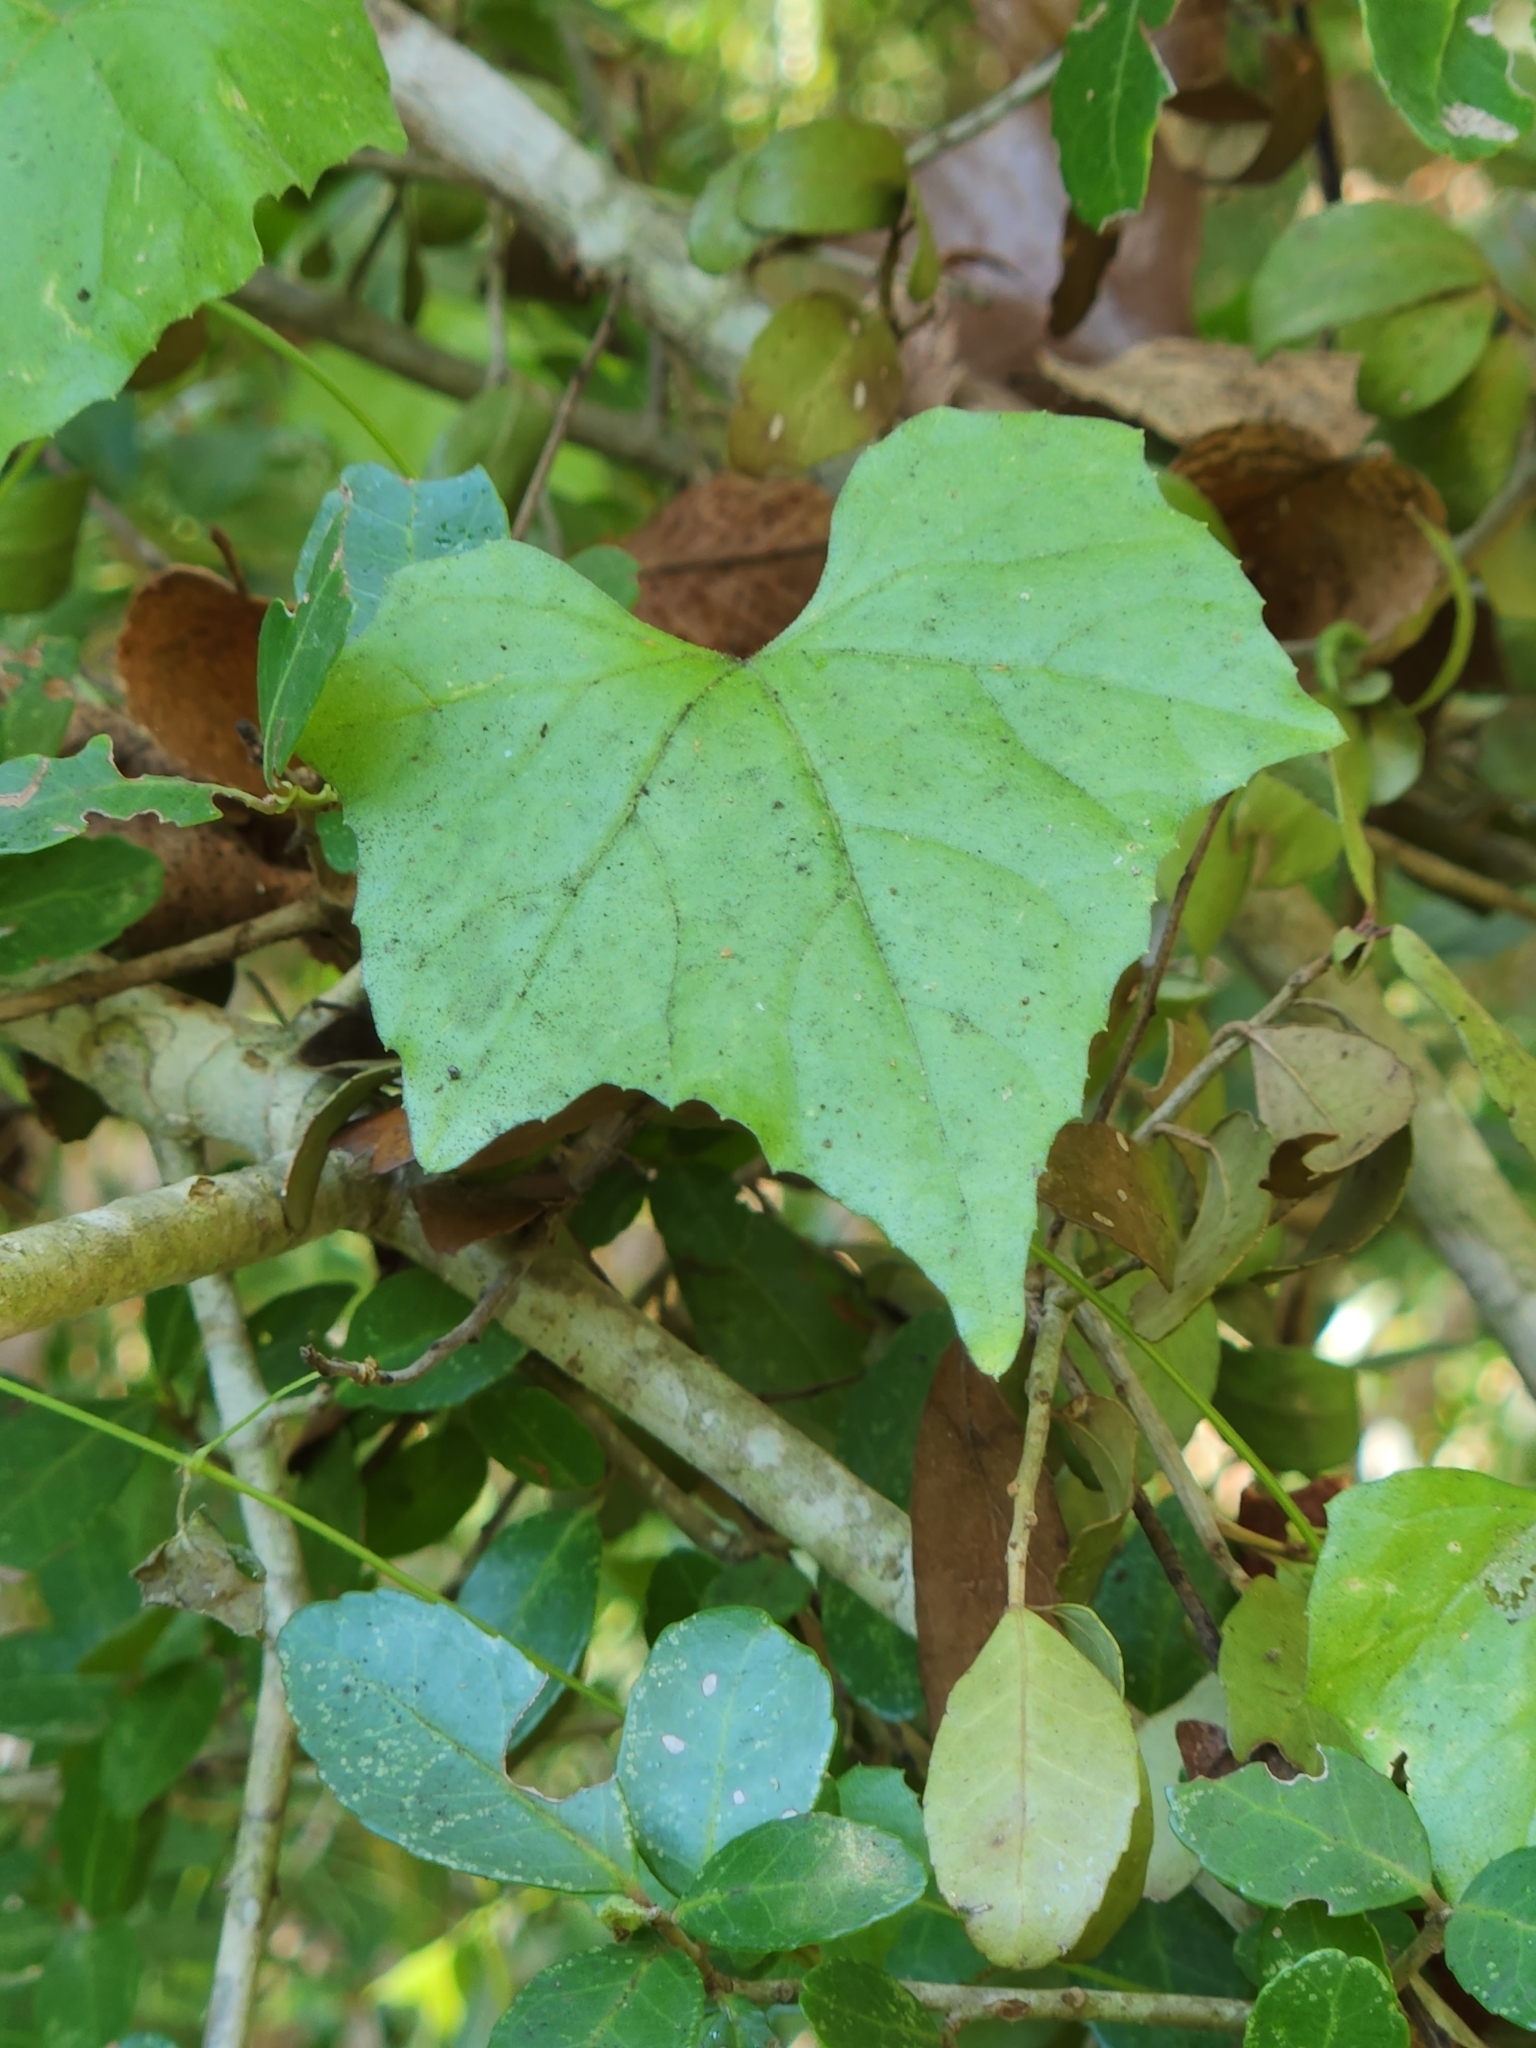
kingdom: Plantae
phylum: Tracheophyta
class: Magnoliopsida
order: Cucurbitales
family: Cucurbitaceae
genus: Melothria
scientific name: Melothria pendula
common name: Creeping-cucumber
